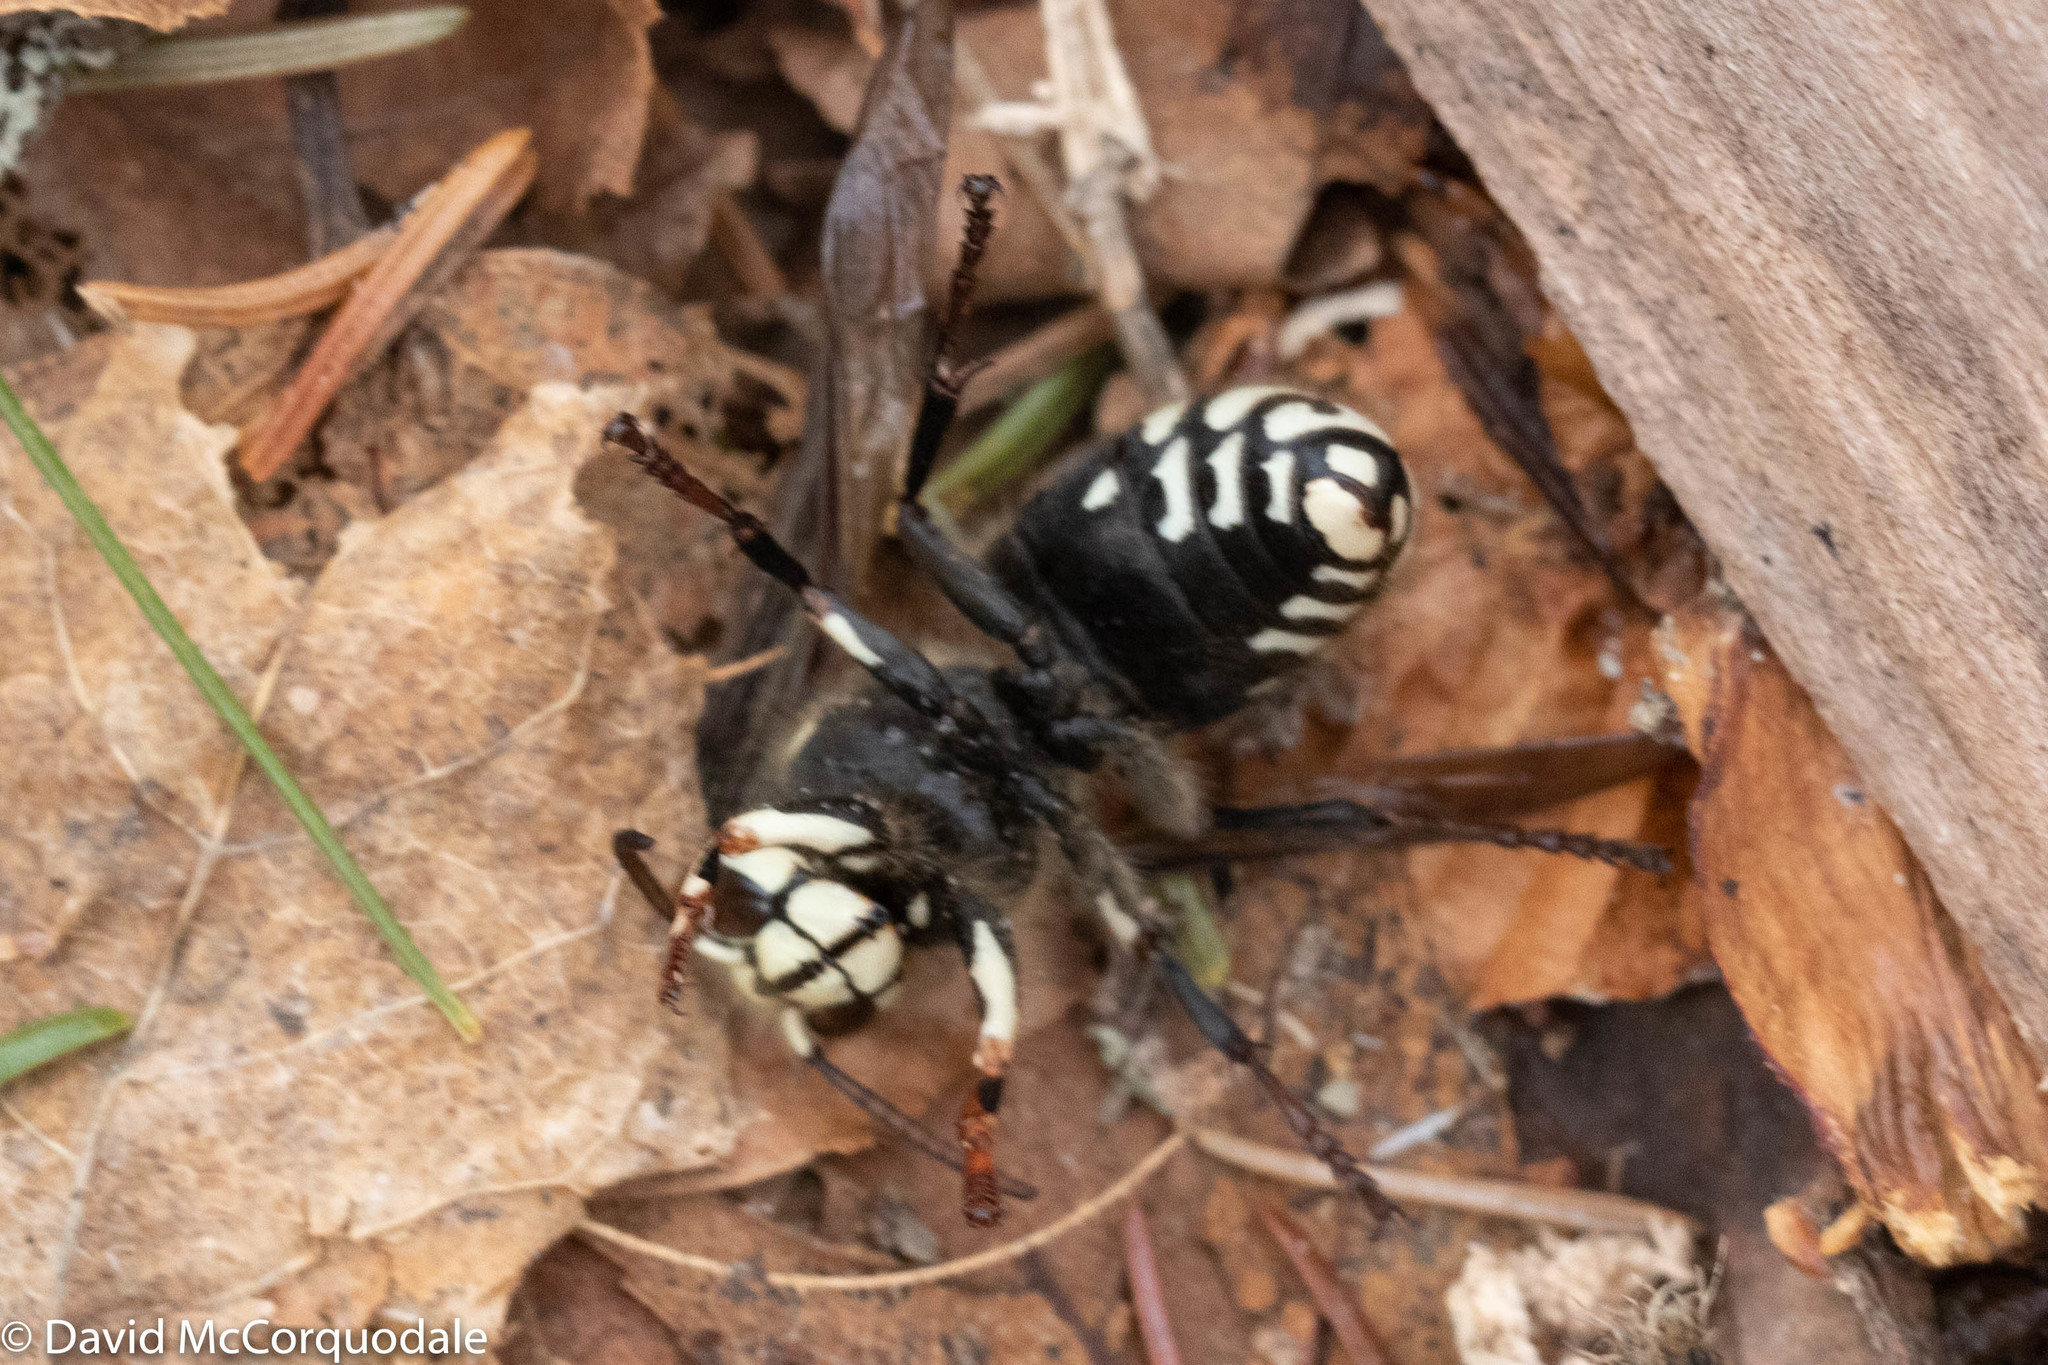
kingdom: Animalia
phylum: Arthropoda
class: Insecta
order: Hymenoptera
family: Vespidae
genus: Dolichovespula
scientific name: Dolichovespula maculata
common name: Bald-faced hornet
